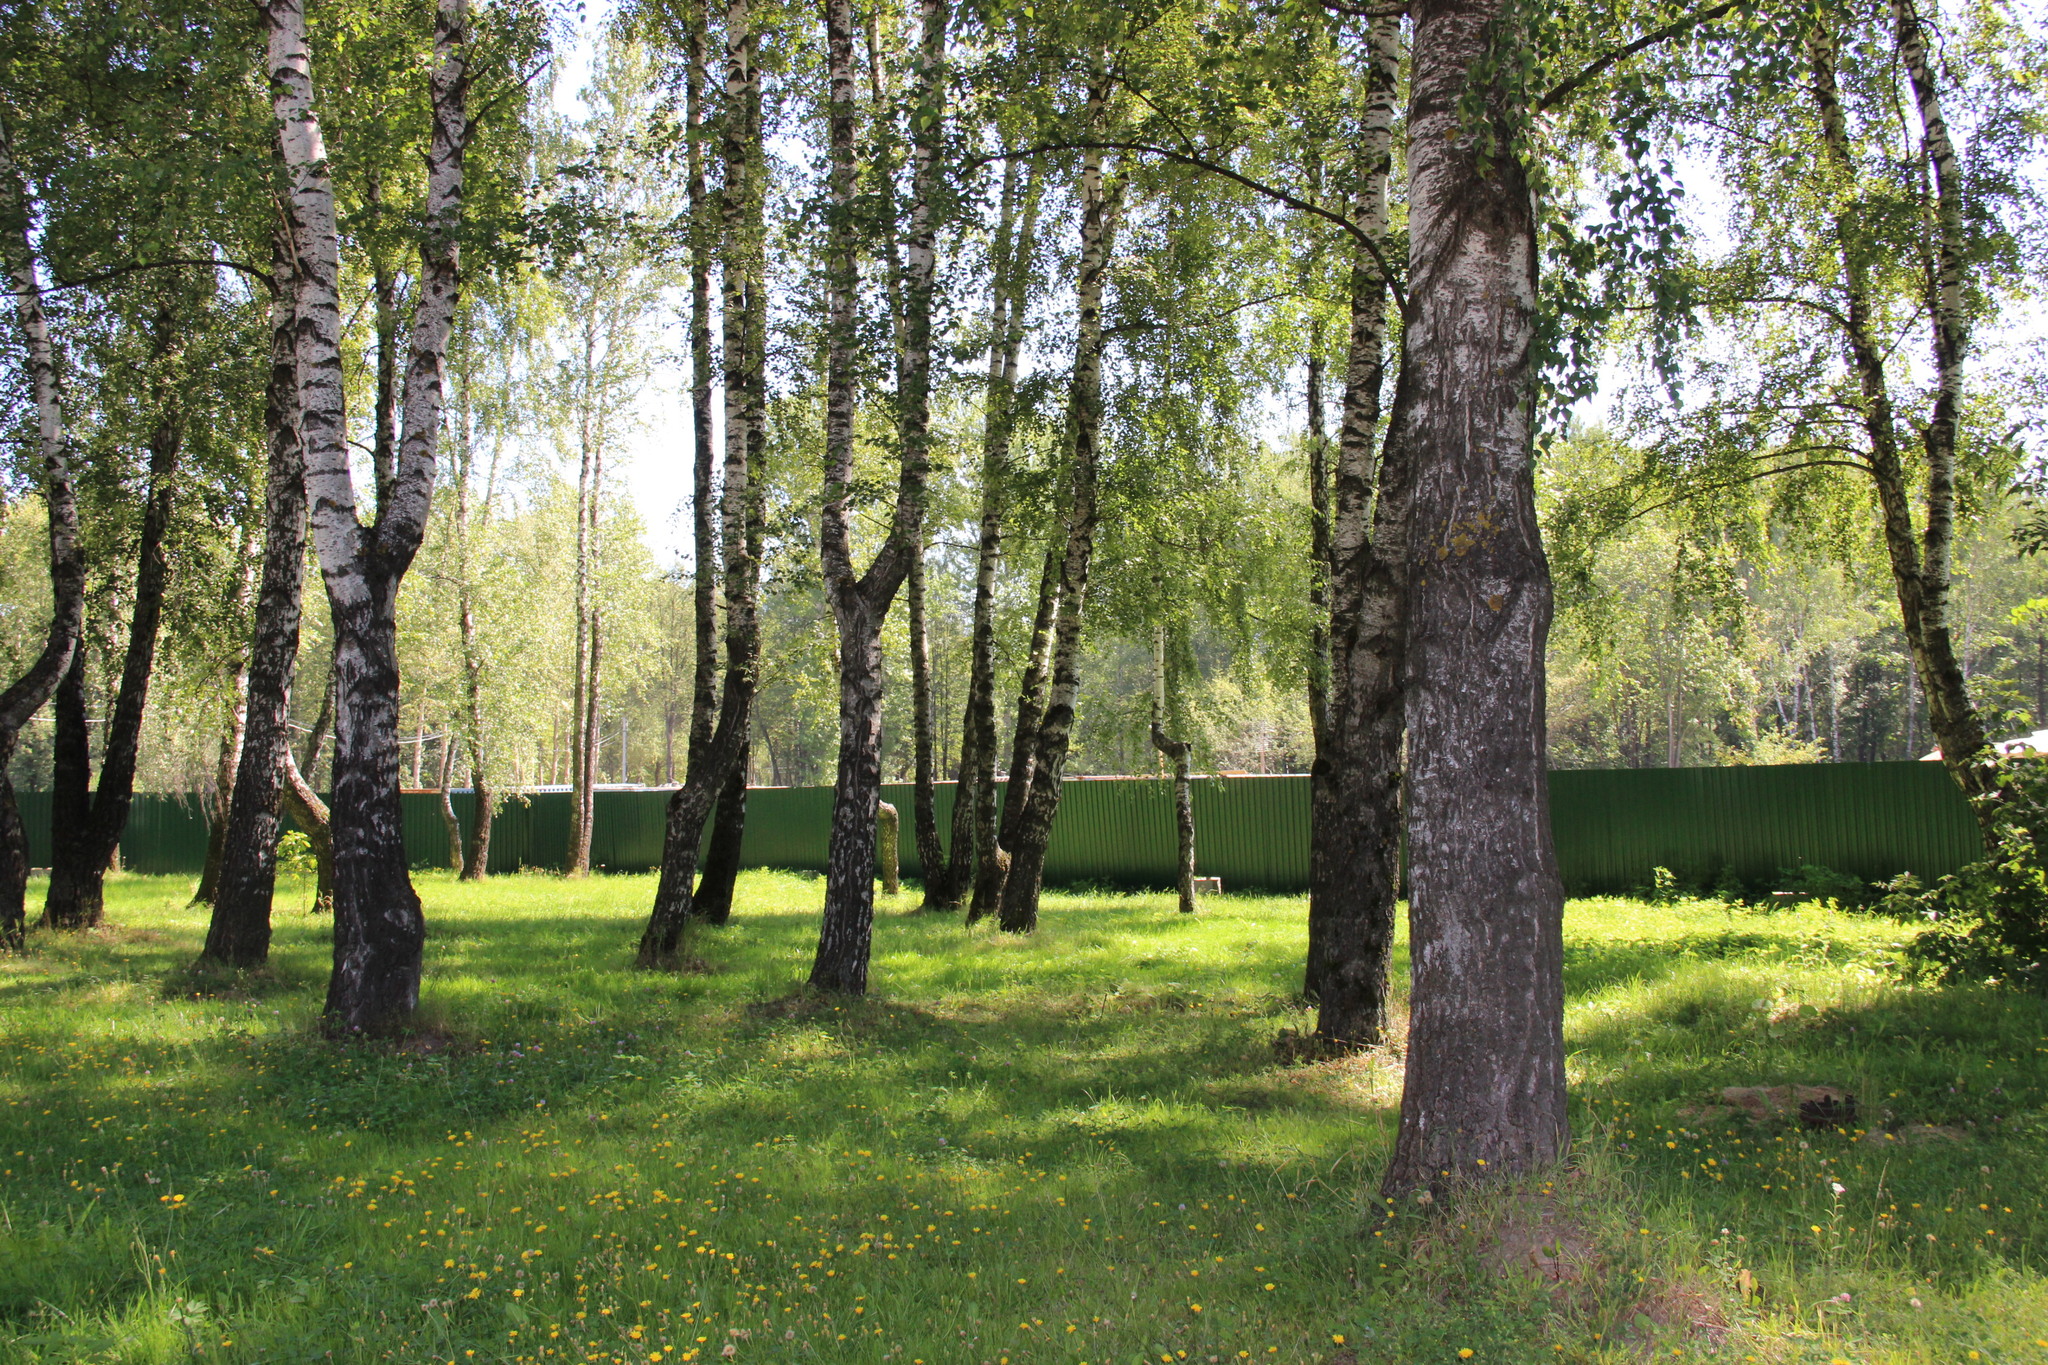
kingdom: Plantae
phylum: Tracheophyta
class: Magnoliopsida
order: Fagales
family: Betulaceae
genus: Betula
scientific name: Betula pendula
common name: Silver birch
